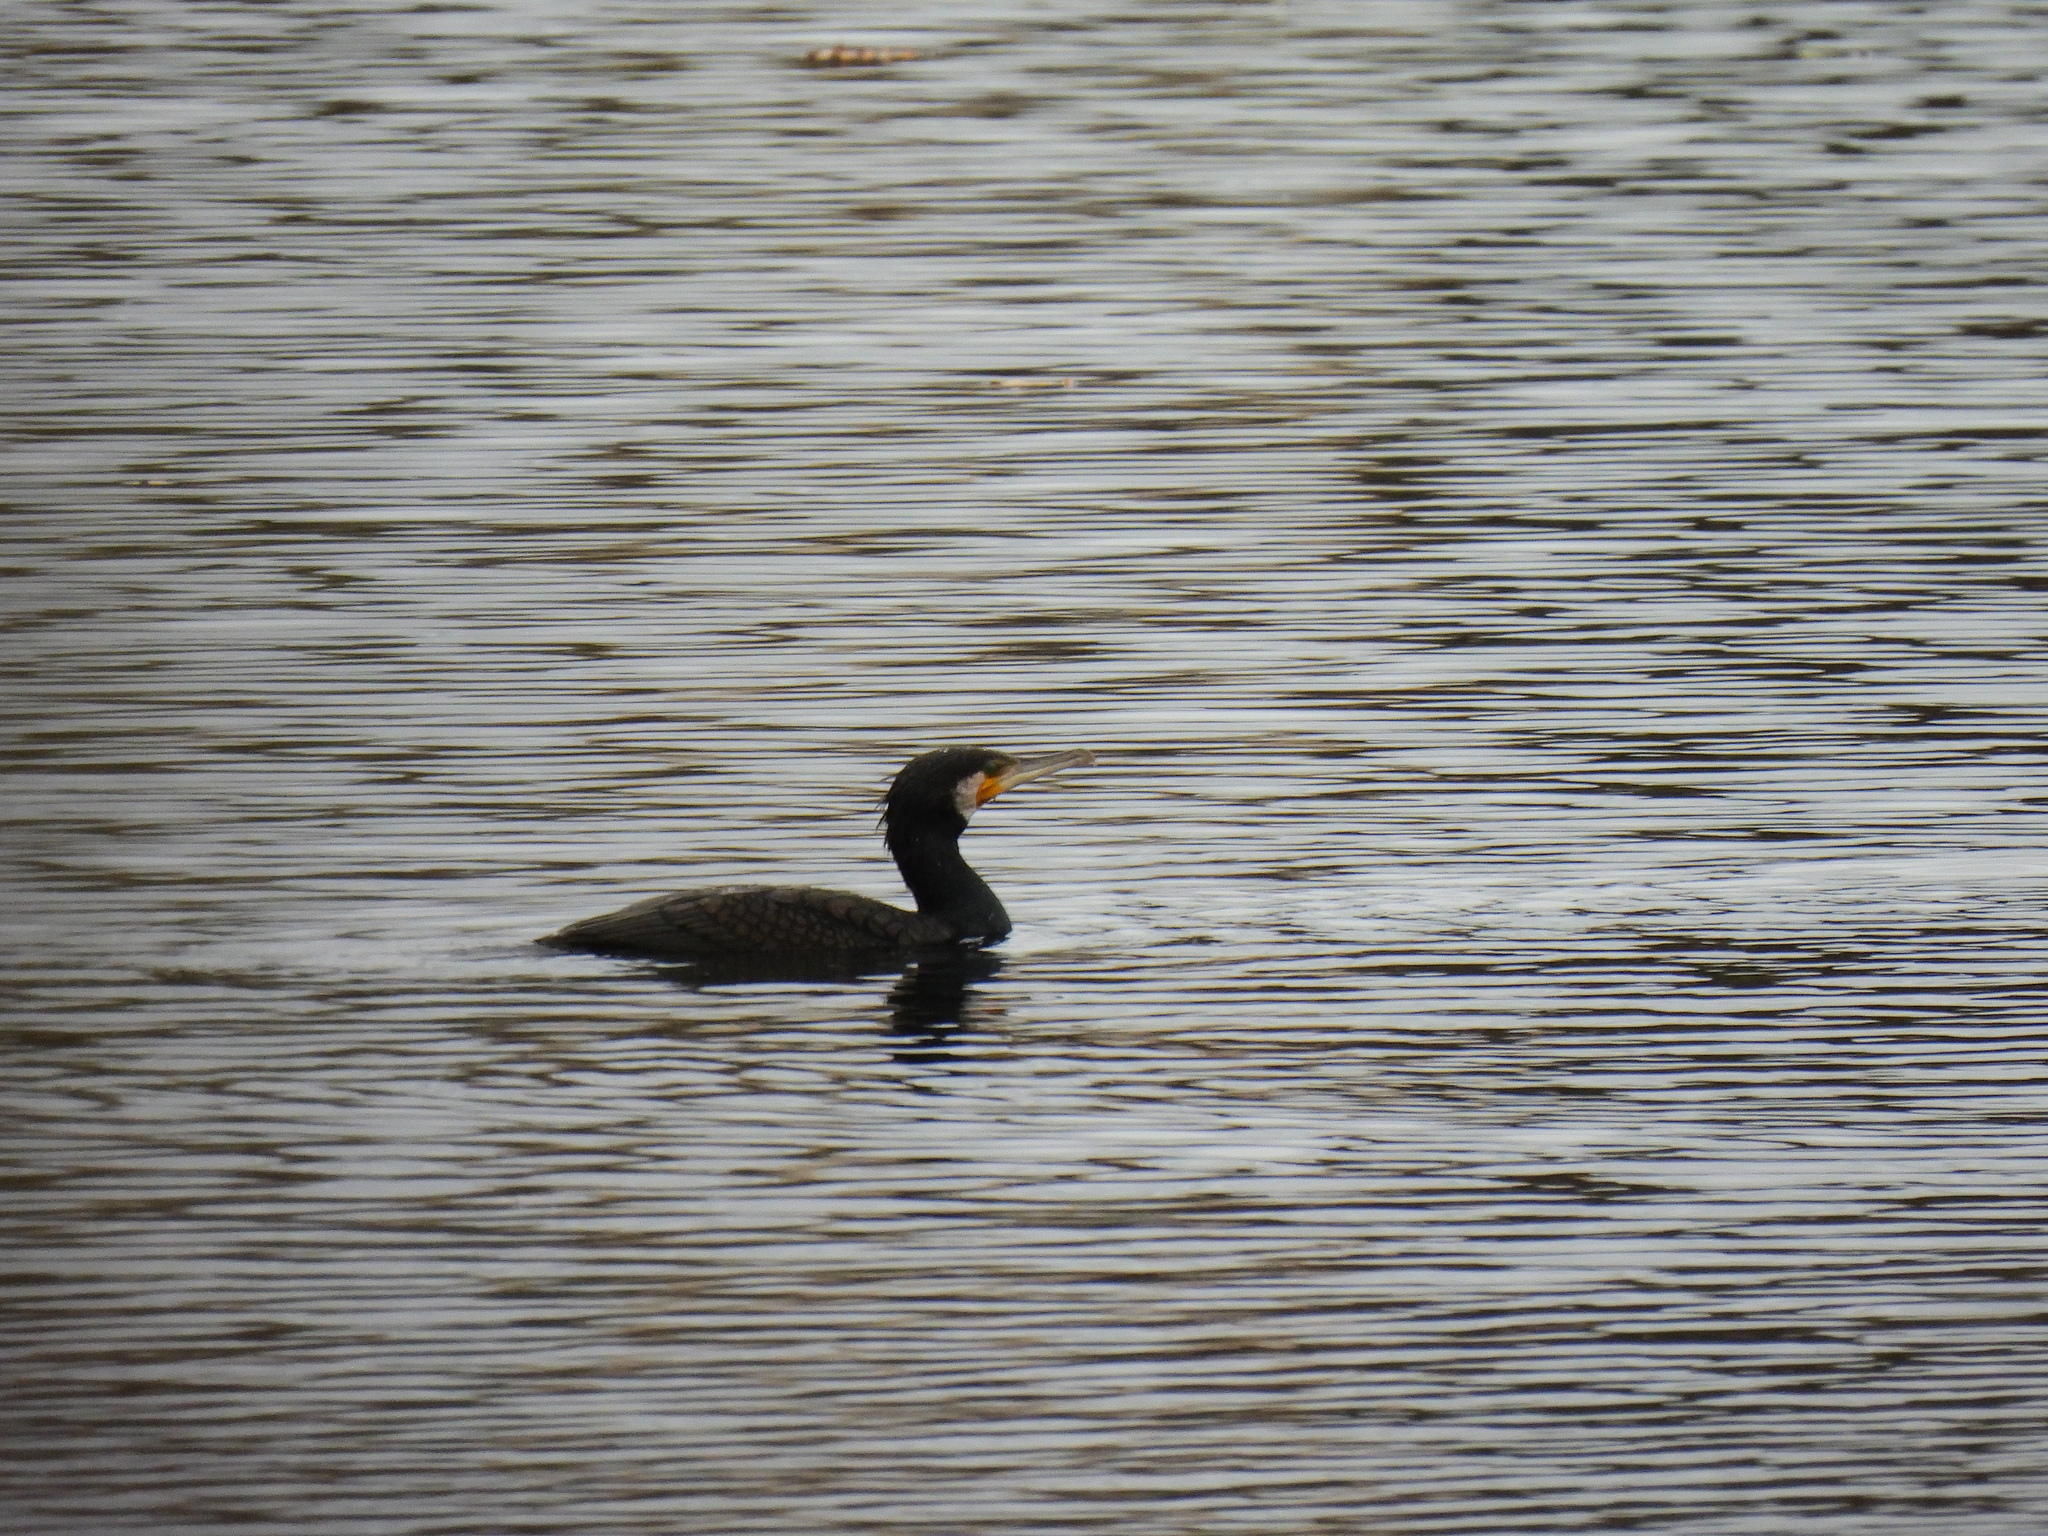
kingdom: Animalia
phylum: Chordata
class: Aves
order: Suliformes
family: Phalacrocoracidae
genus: Phalacrocorax
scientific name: Phalacrocorax carbo
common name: Great cormorant
